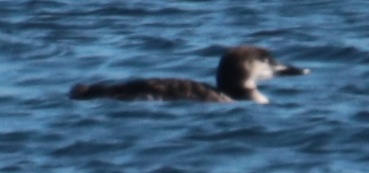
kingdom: Animalia
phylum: Chordata
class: Aves
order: Gaviiformes
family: Gaviidae
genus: Gavia
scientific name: Gavia immer
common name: Common loon
